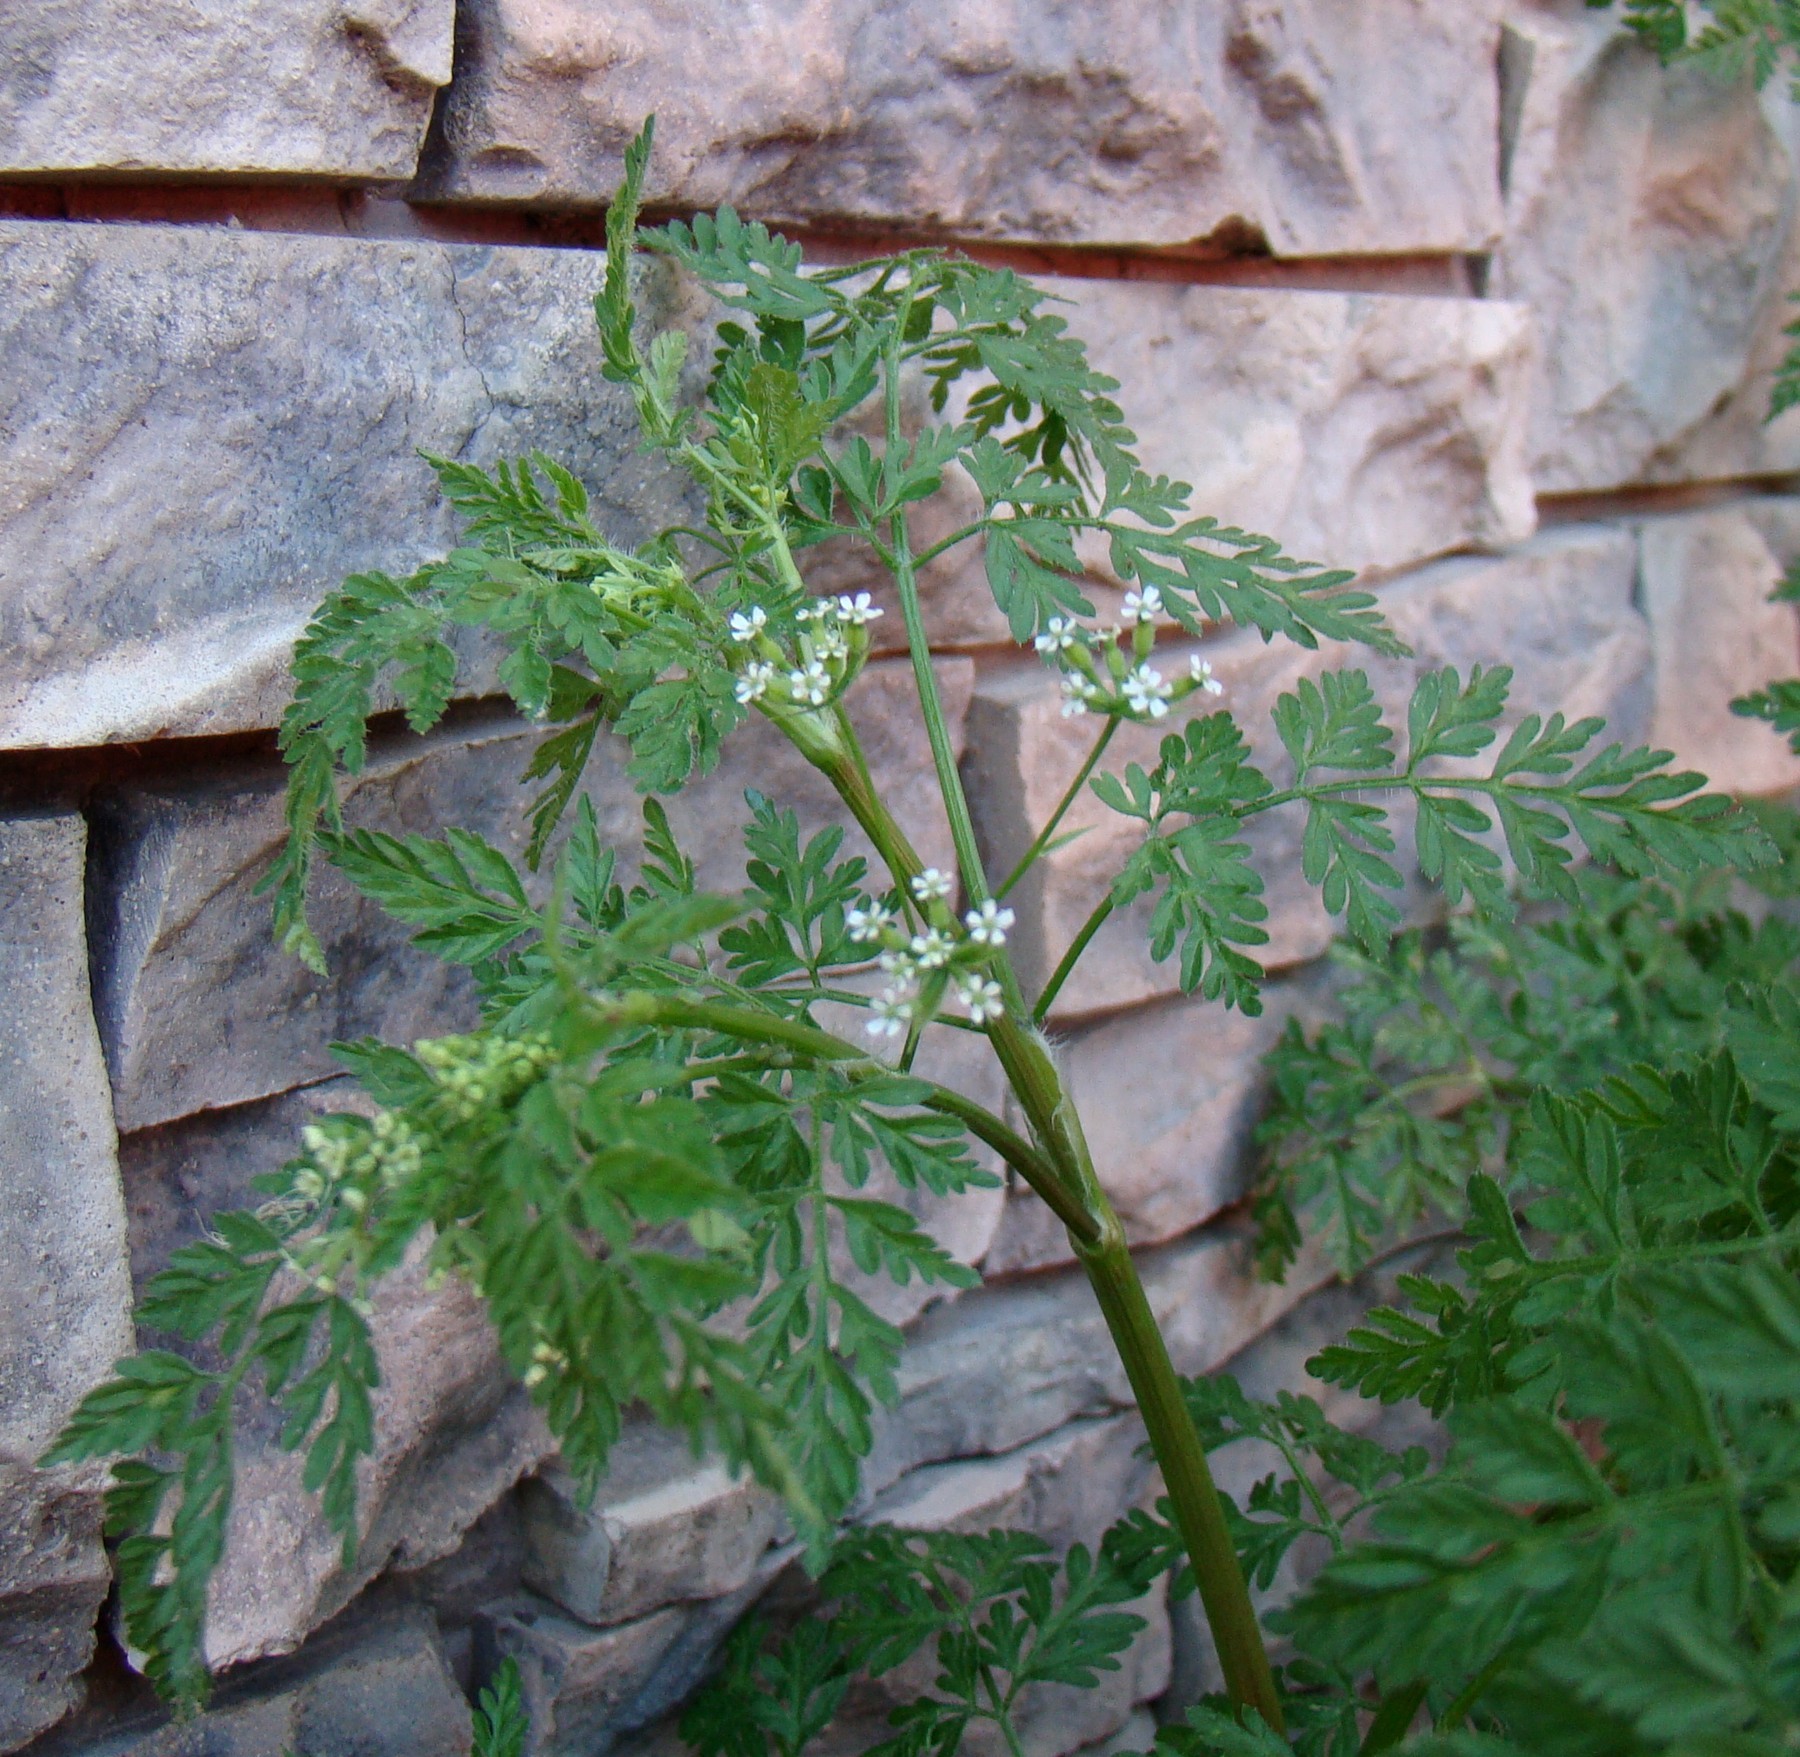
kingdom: Plantae
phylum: Tracheophyta
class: Magnoliopsida
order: Apiales
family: Apiaceae
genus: Anthriscus
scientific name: Anthriscus caucalis
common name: Bur chervil
